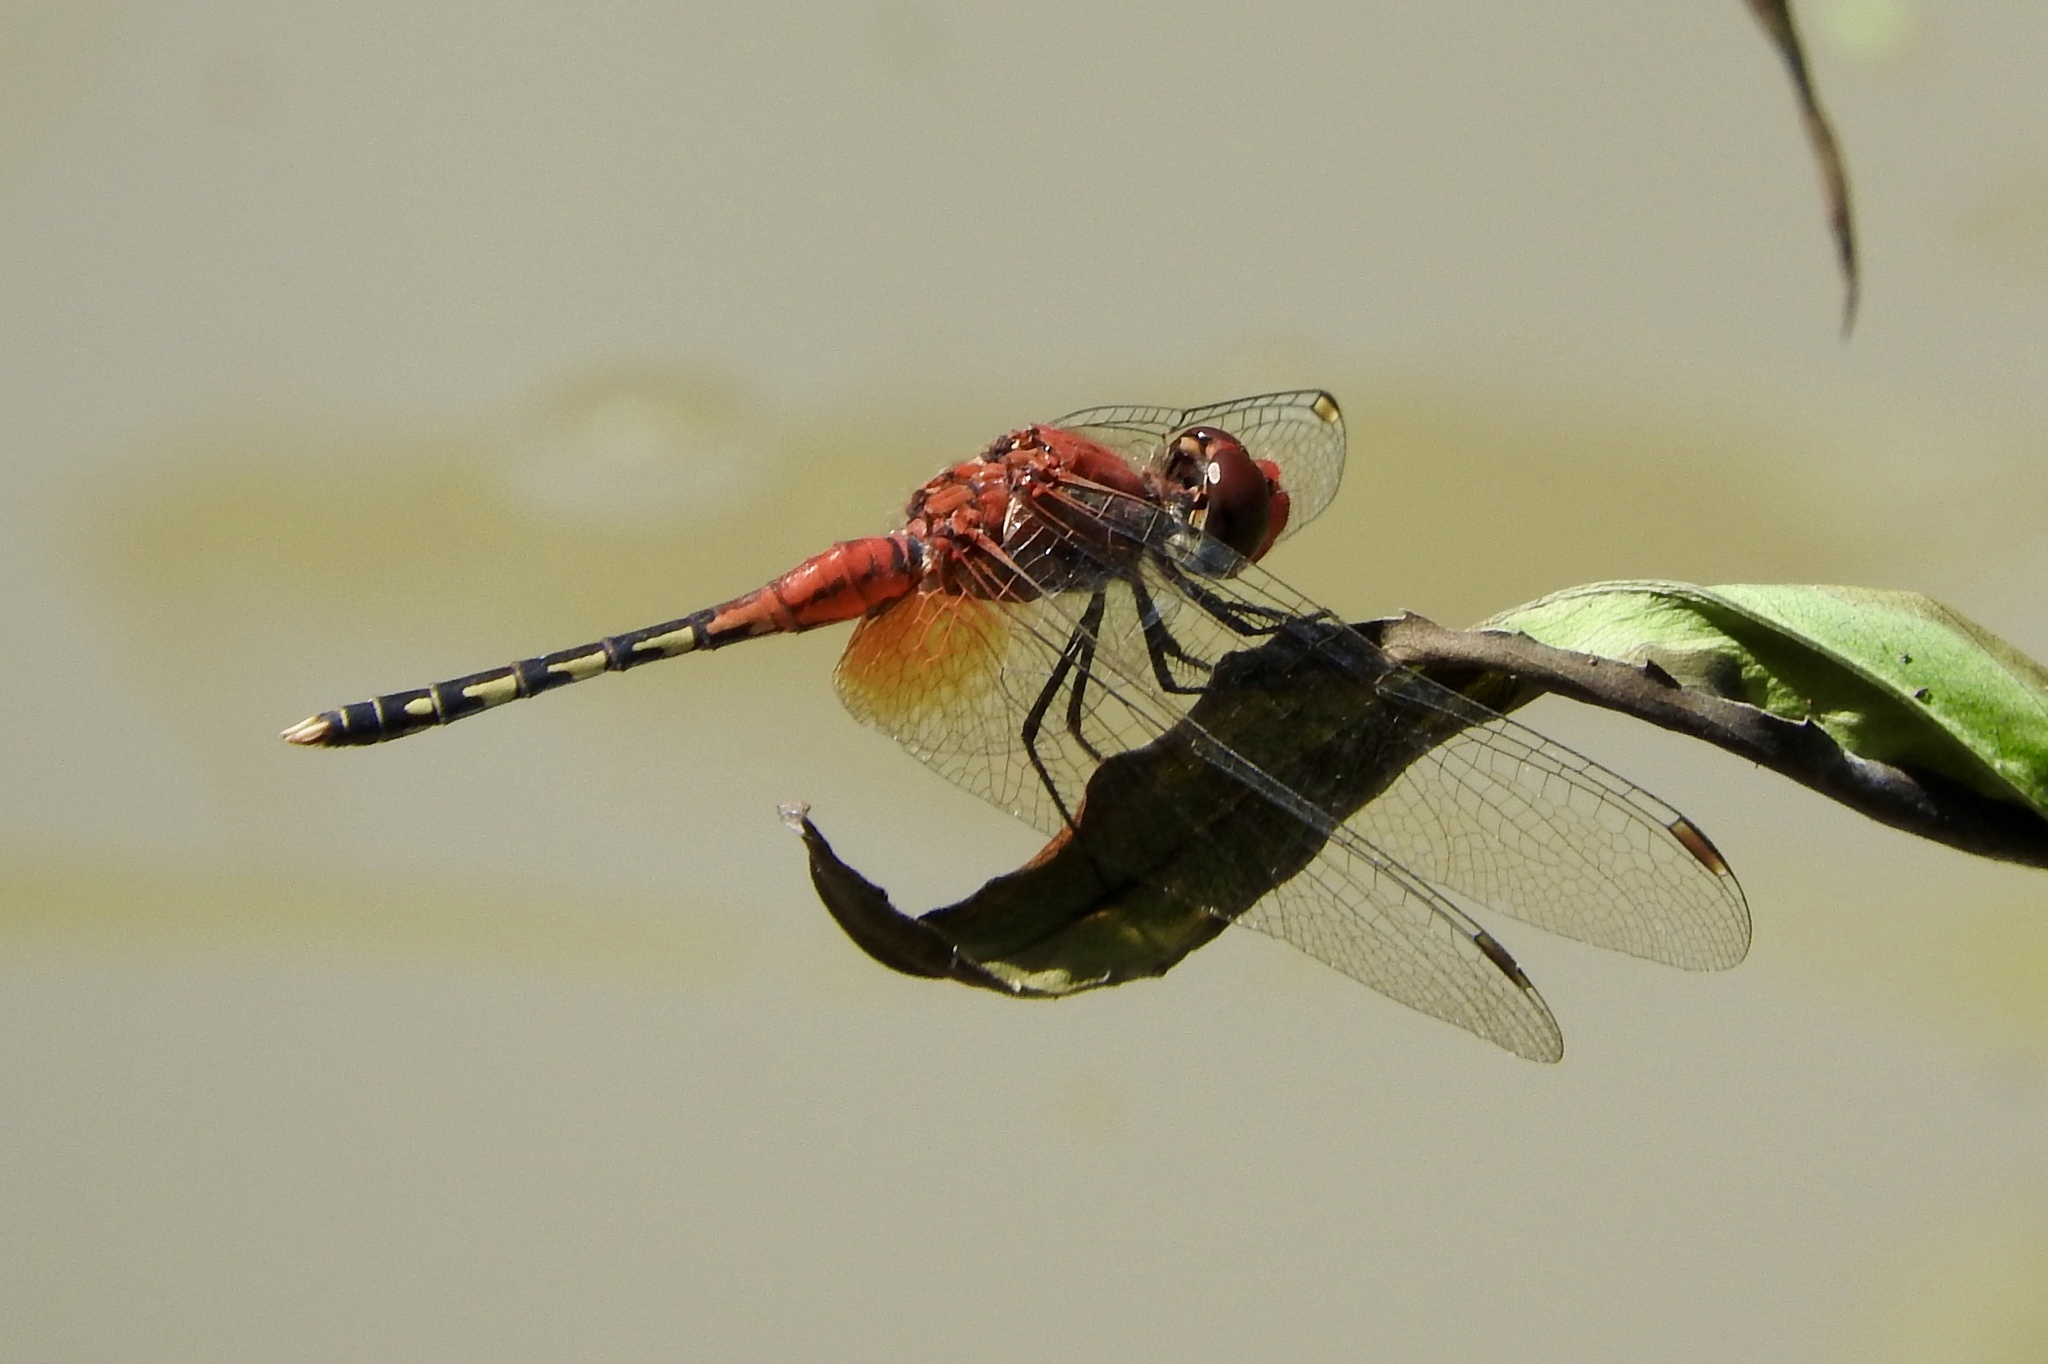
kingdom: Animalia
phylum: Arthropoda
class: Insecta
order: Odonata
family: Libellulidae
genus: Diplacodes
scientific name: Diplacodes luminans
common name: Barbet percher
